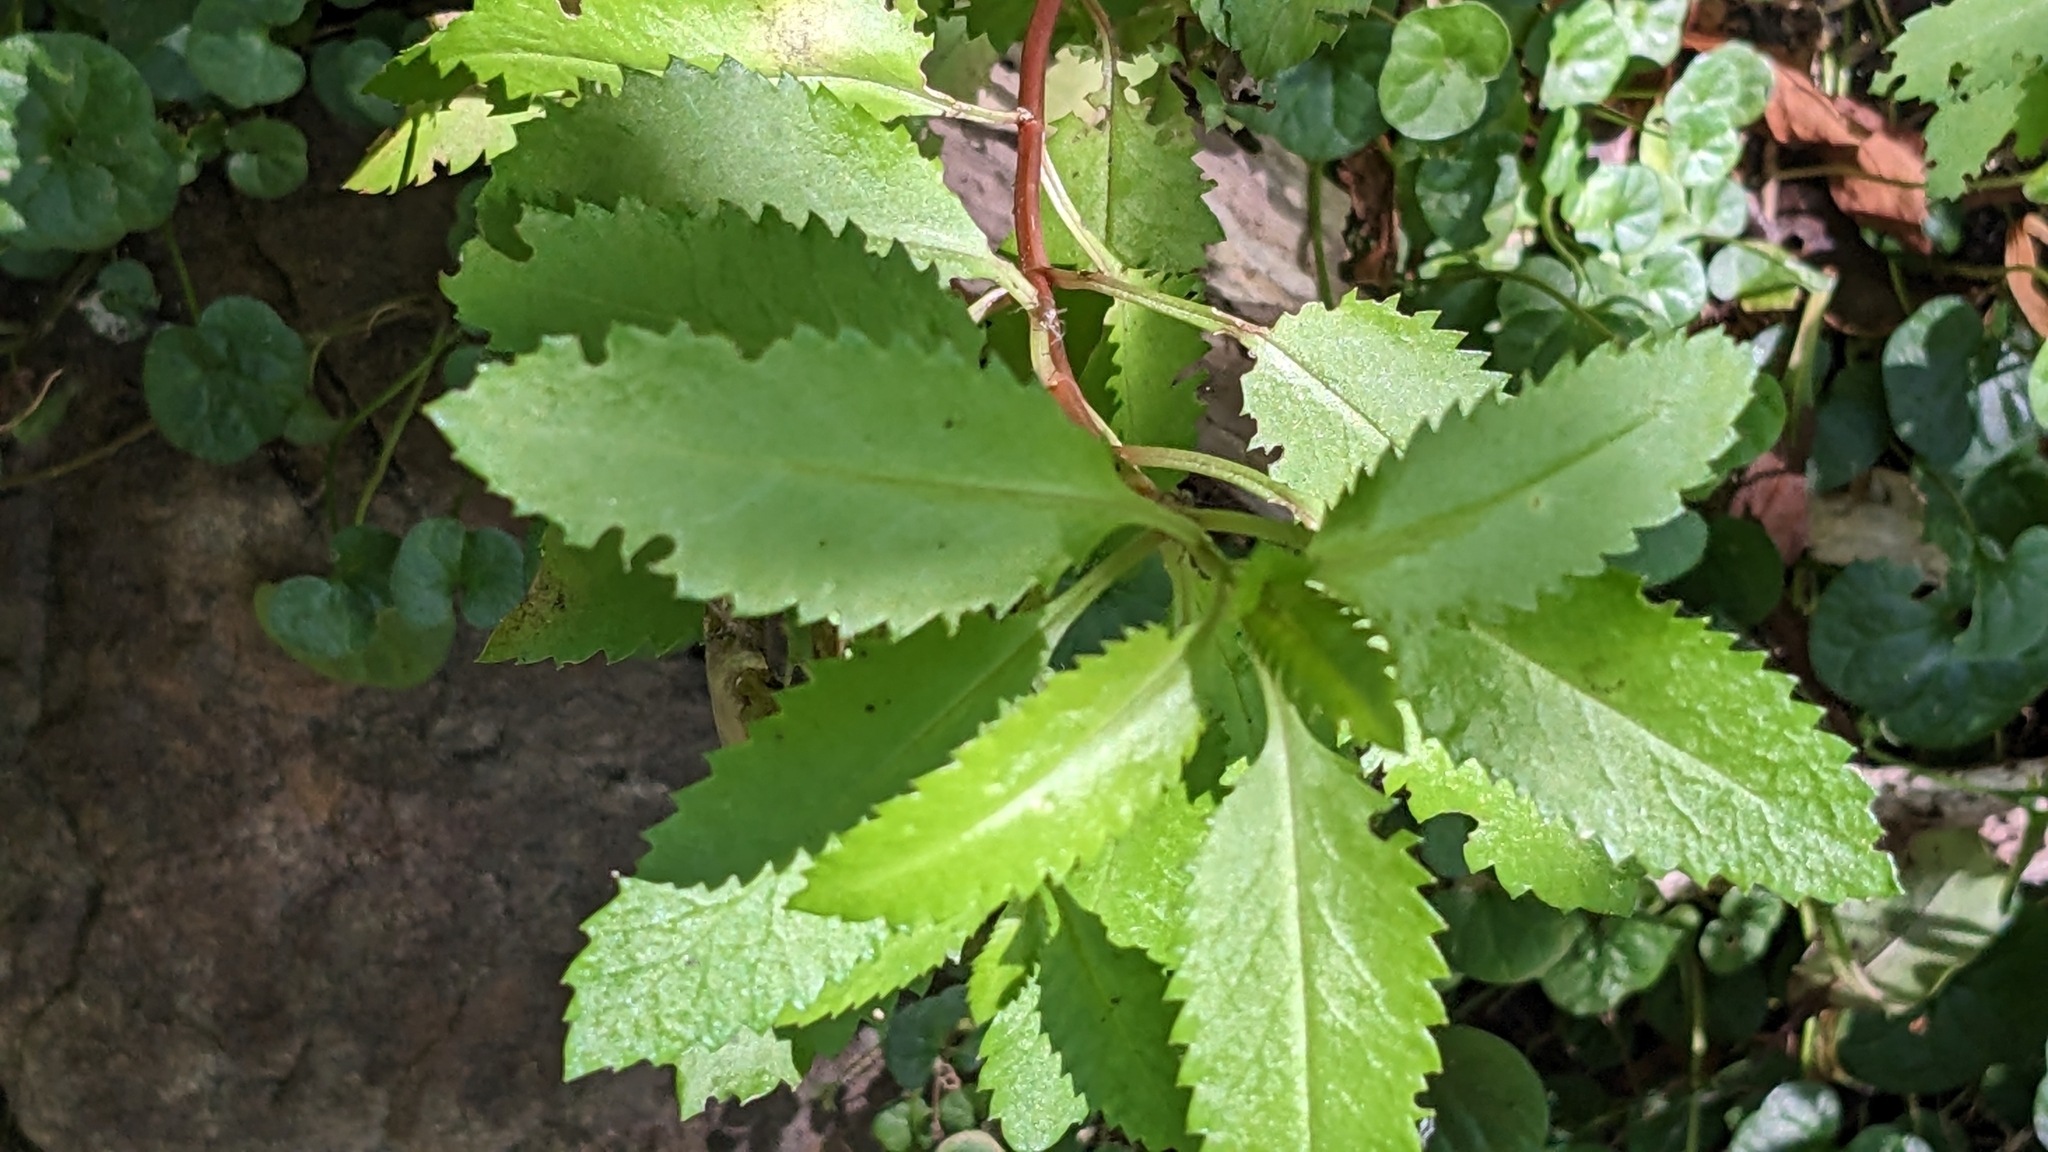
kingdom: Plantae
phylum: Tracheophyta
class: Magnoliopsida
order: Saxifragales
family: Haloragaceae
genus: Haloragis
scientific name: Haloragis erecta
